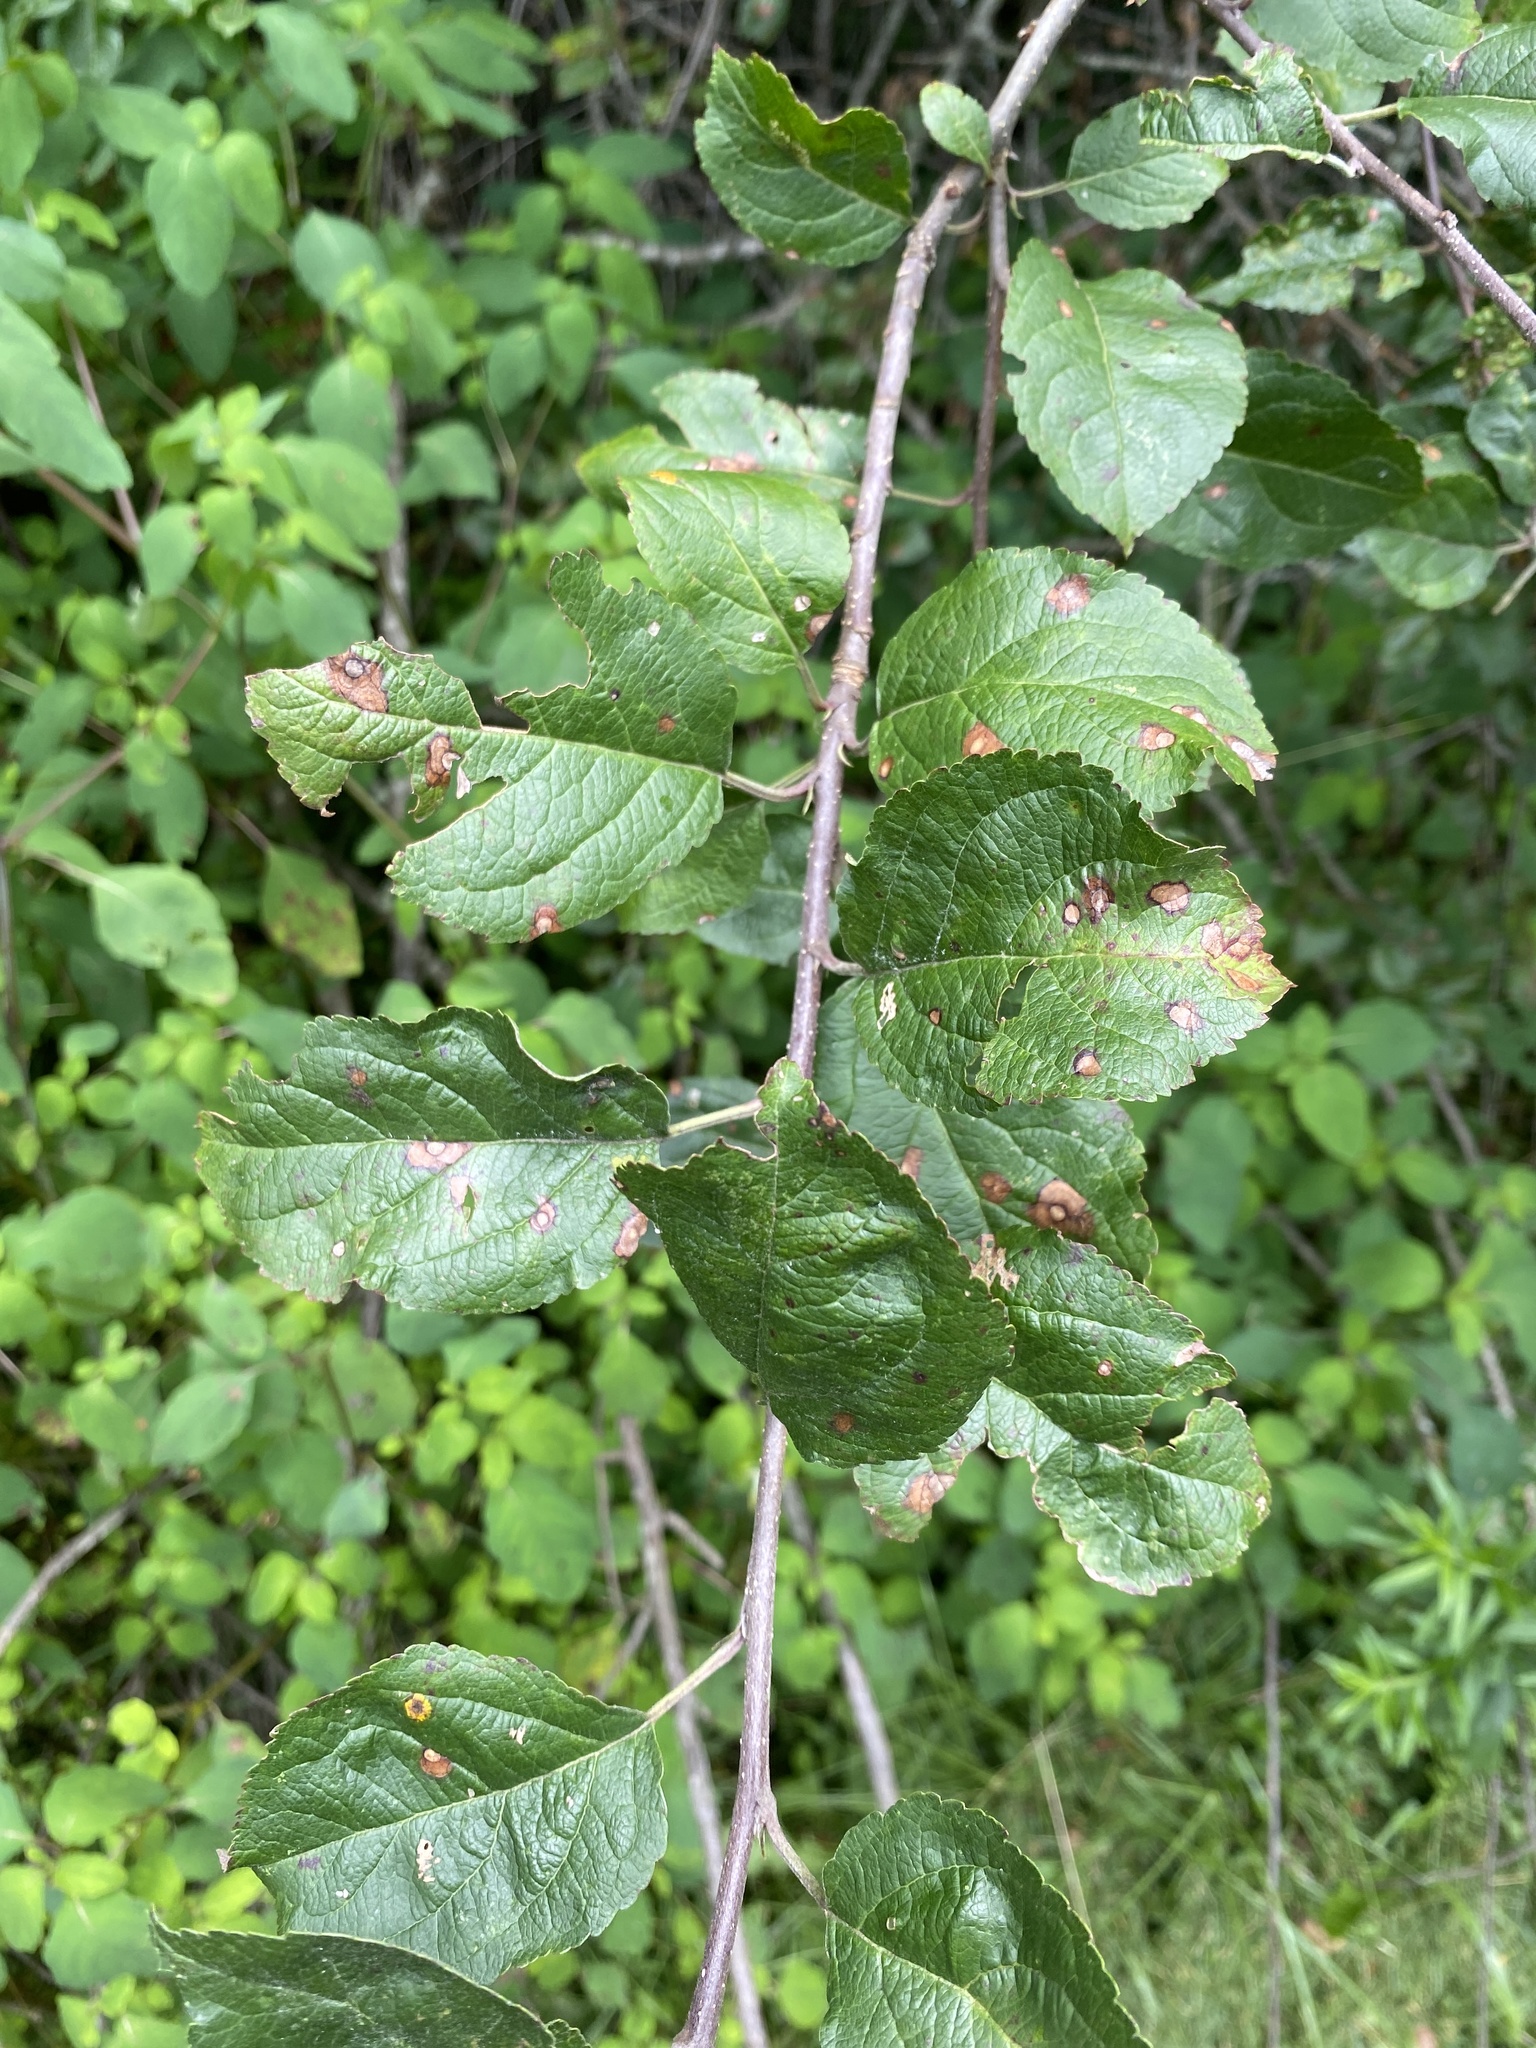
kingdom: Plantae
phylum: Tracheophyta
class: Magnoliopsida
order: Rosales
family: Rosaceae
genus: Malus
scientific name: Malus domestica
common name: Apple
